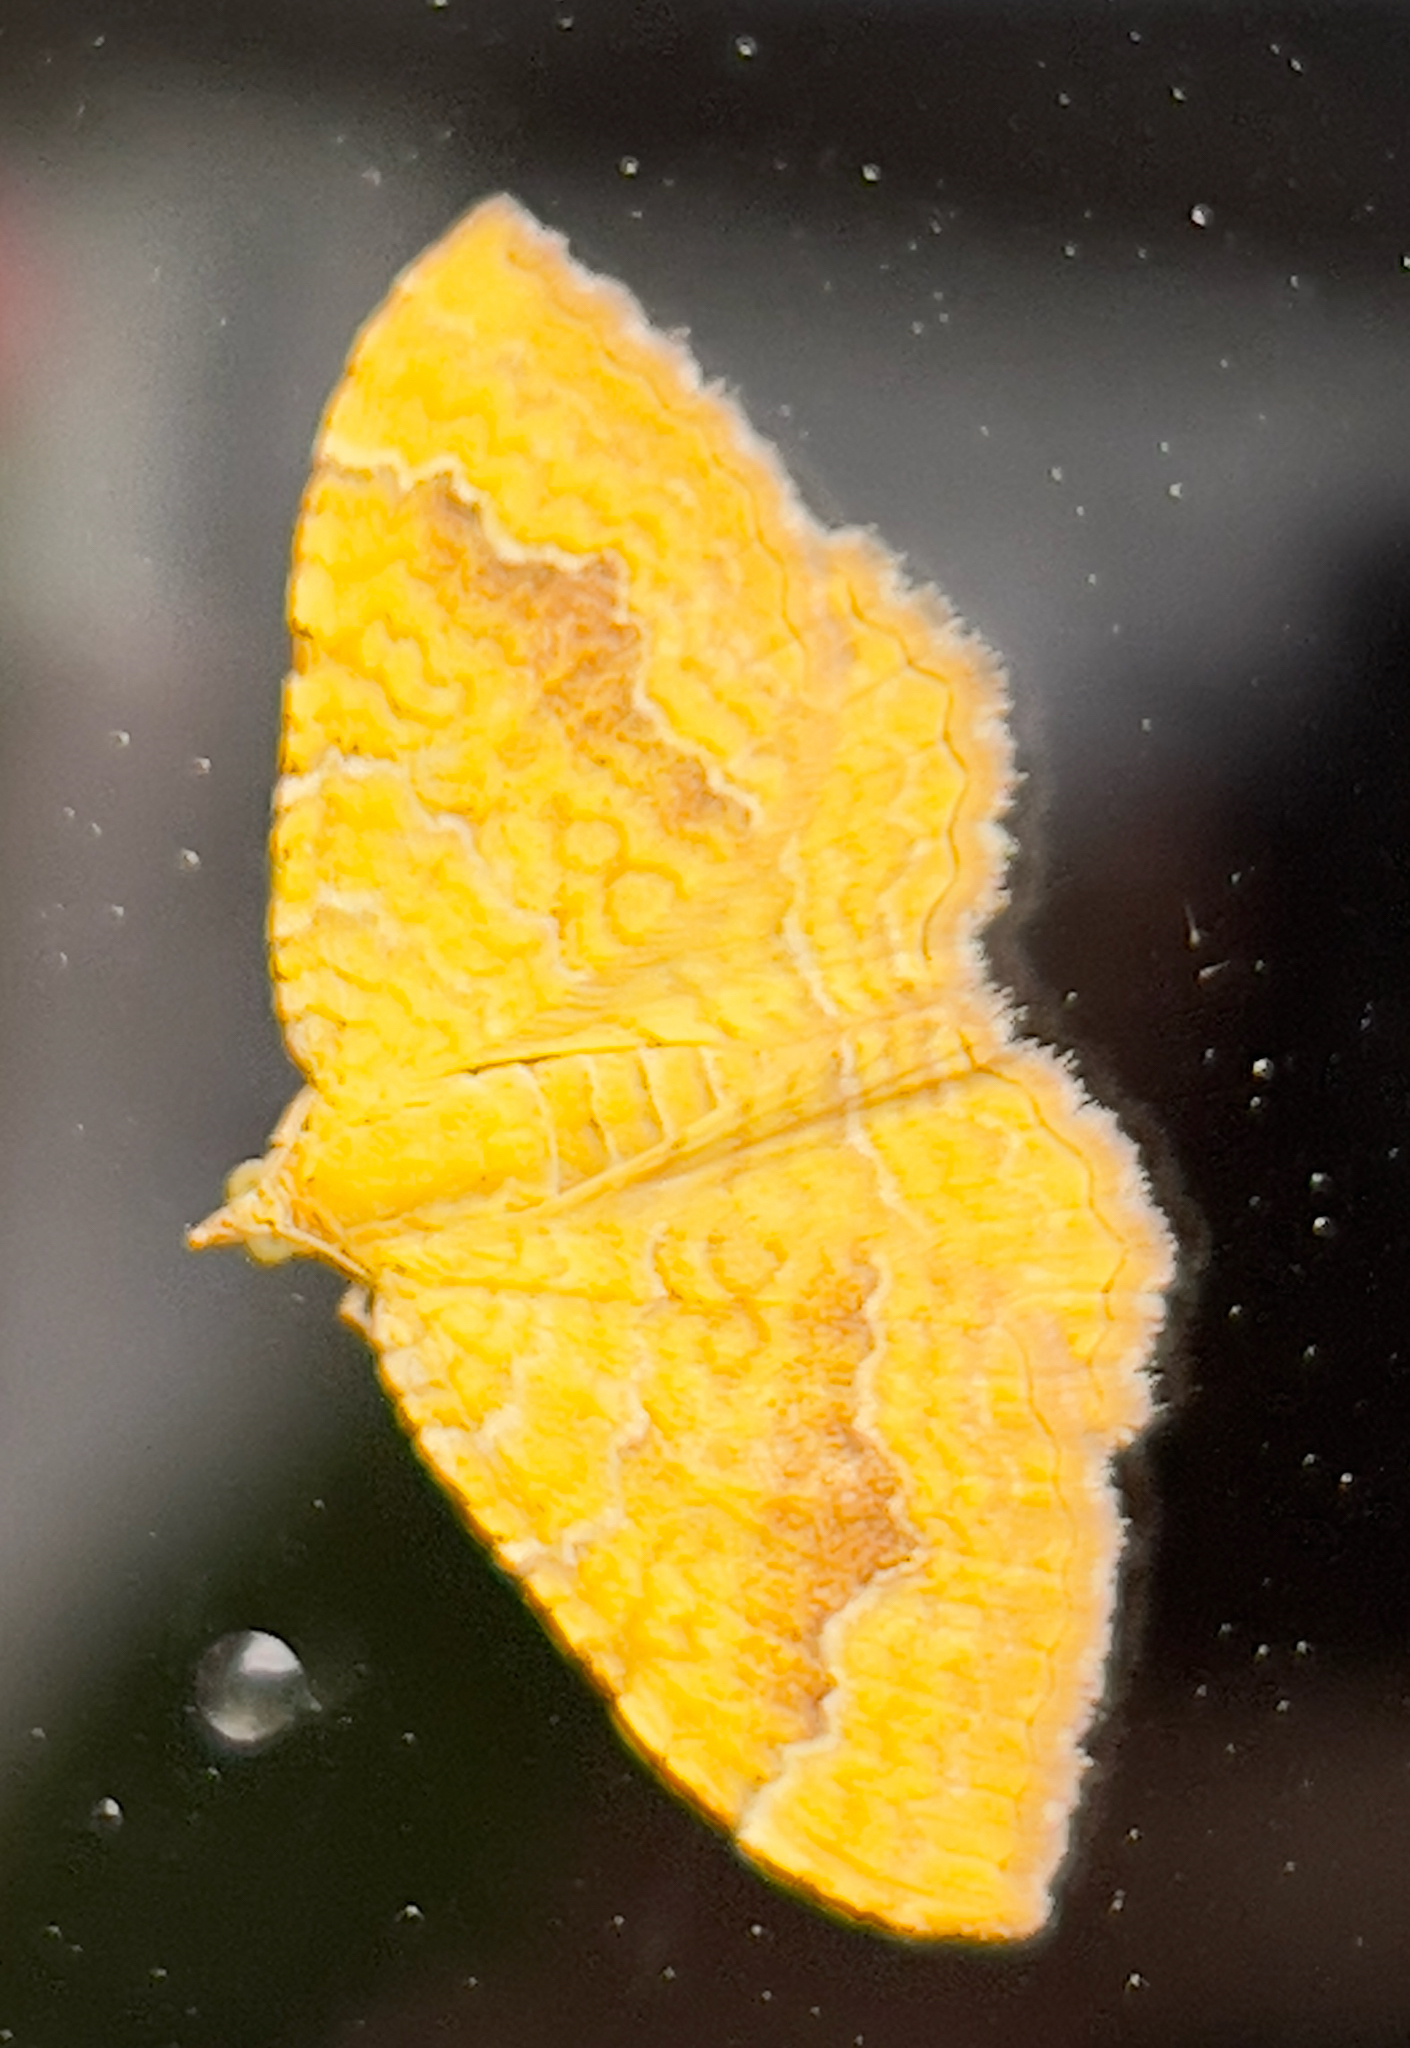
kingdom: Animalia
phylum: Arthropoda
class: Insecta
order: Lepidoptera
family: Geometridae
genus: Camptogramma
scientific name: Camptogramma bilineata
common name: Yellow shell
